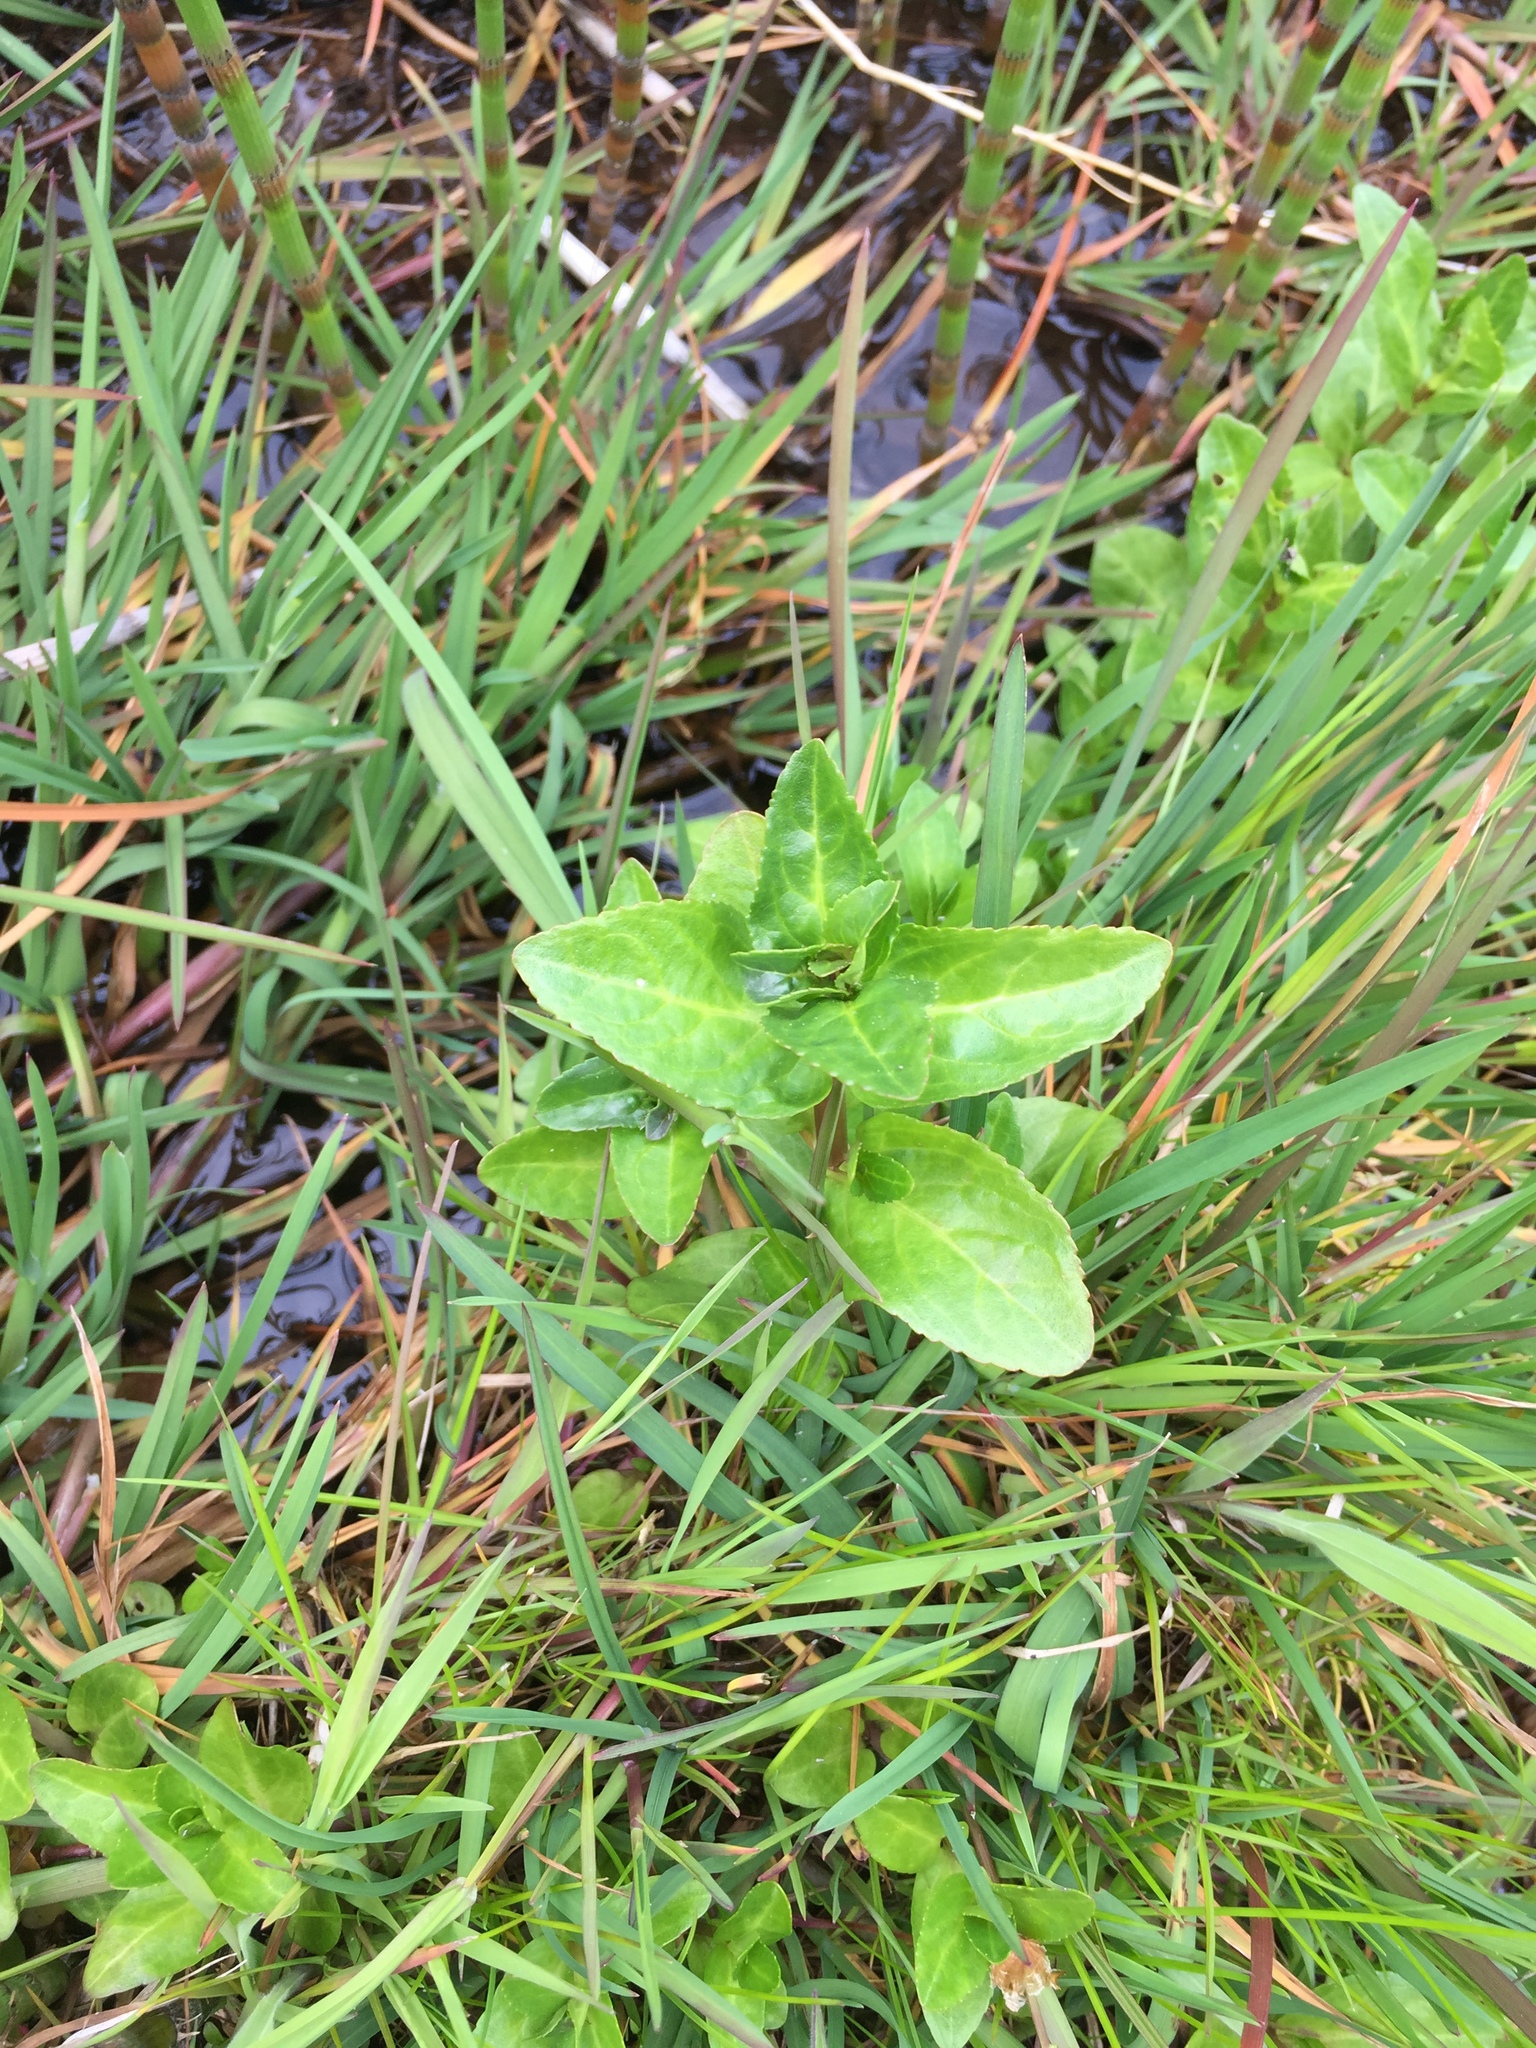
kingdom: Plantae
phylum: Tracheophyta
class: Magnoliopsida
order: Lamiales
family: Plantaginaceae
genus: Veronica
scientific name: Veronica beccabunga
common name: Brooklime
